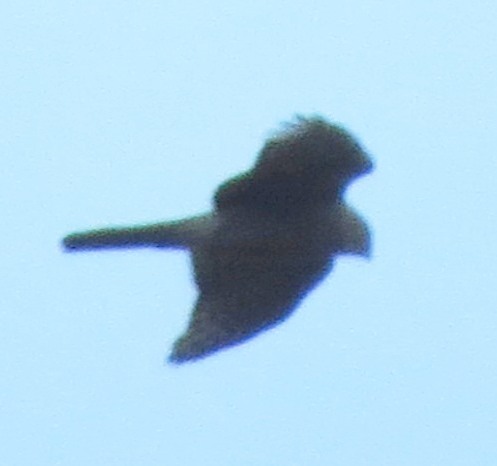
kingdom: Animalia
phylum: Chordata
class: Aves
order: Accipitriformes
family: Accipitridae
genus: Accipiter
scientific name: Accipiter nisus
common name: Eurasian sparrowhawk
